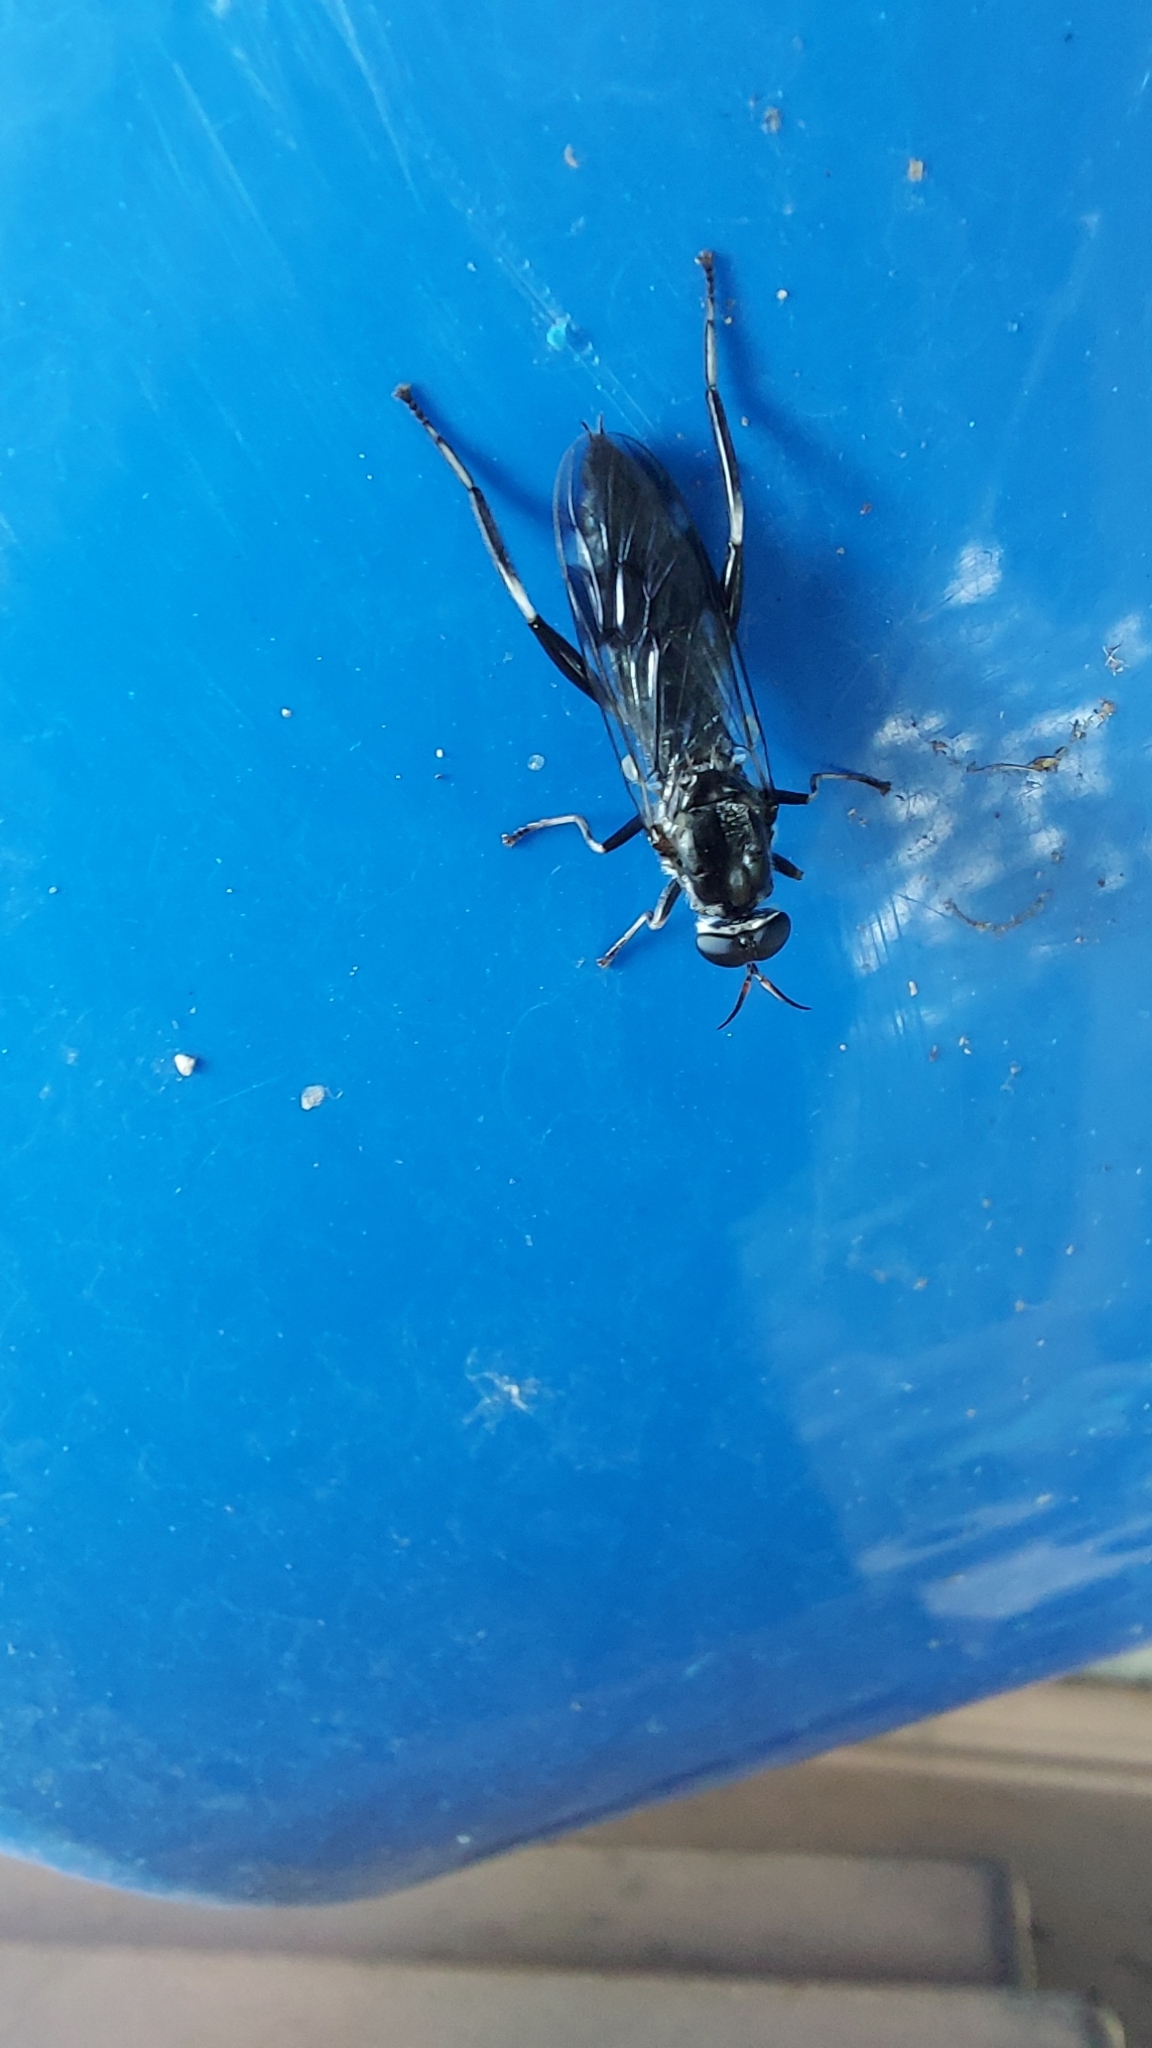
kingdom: Animalia
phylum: Arthropoda
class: Insecta
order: Diptera
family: Stratiomyidae
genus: Exaireta
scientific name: Exaireta spinigera
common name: Blue soldier fly
